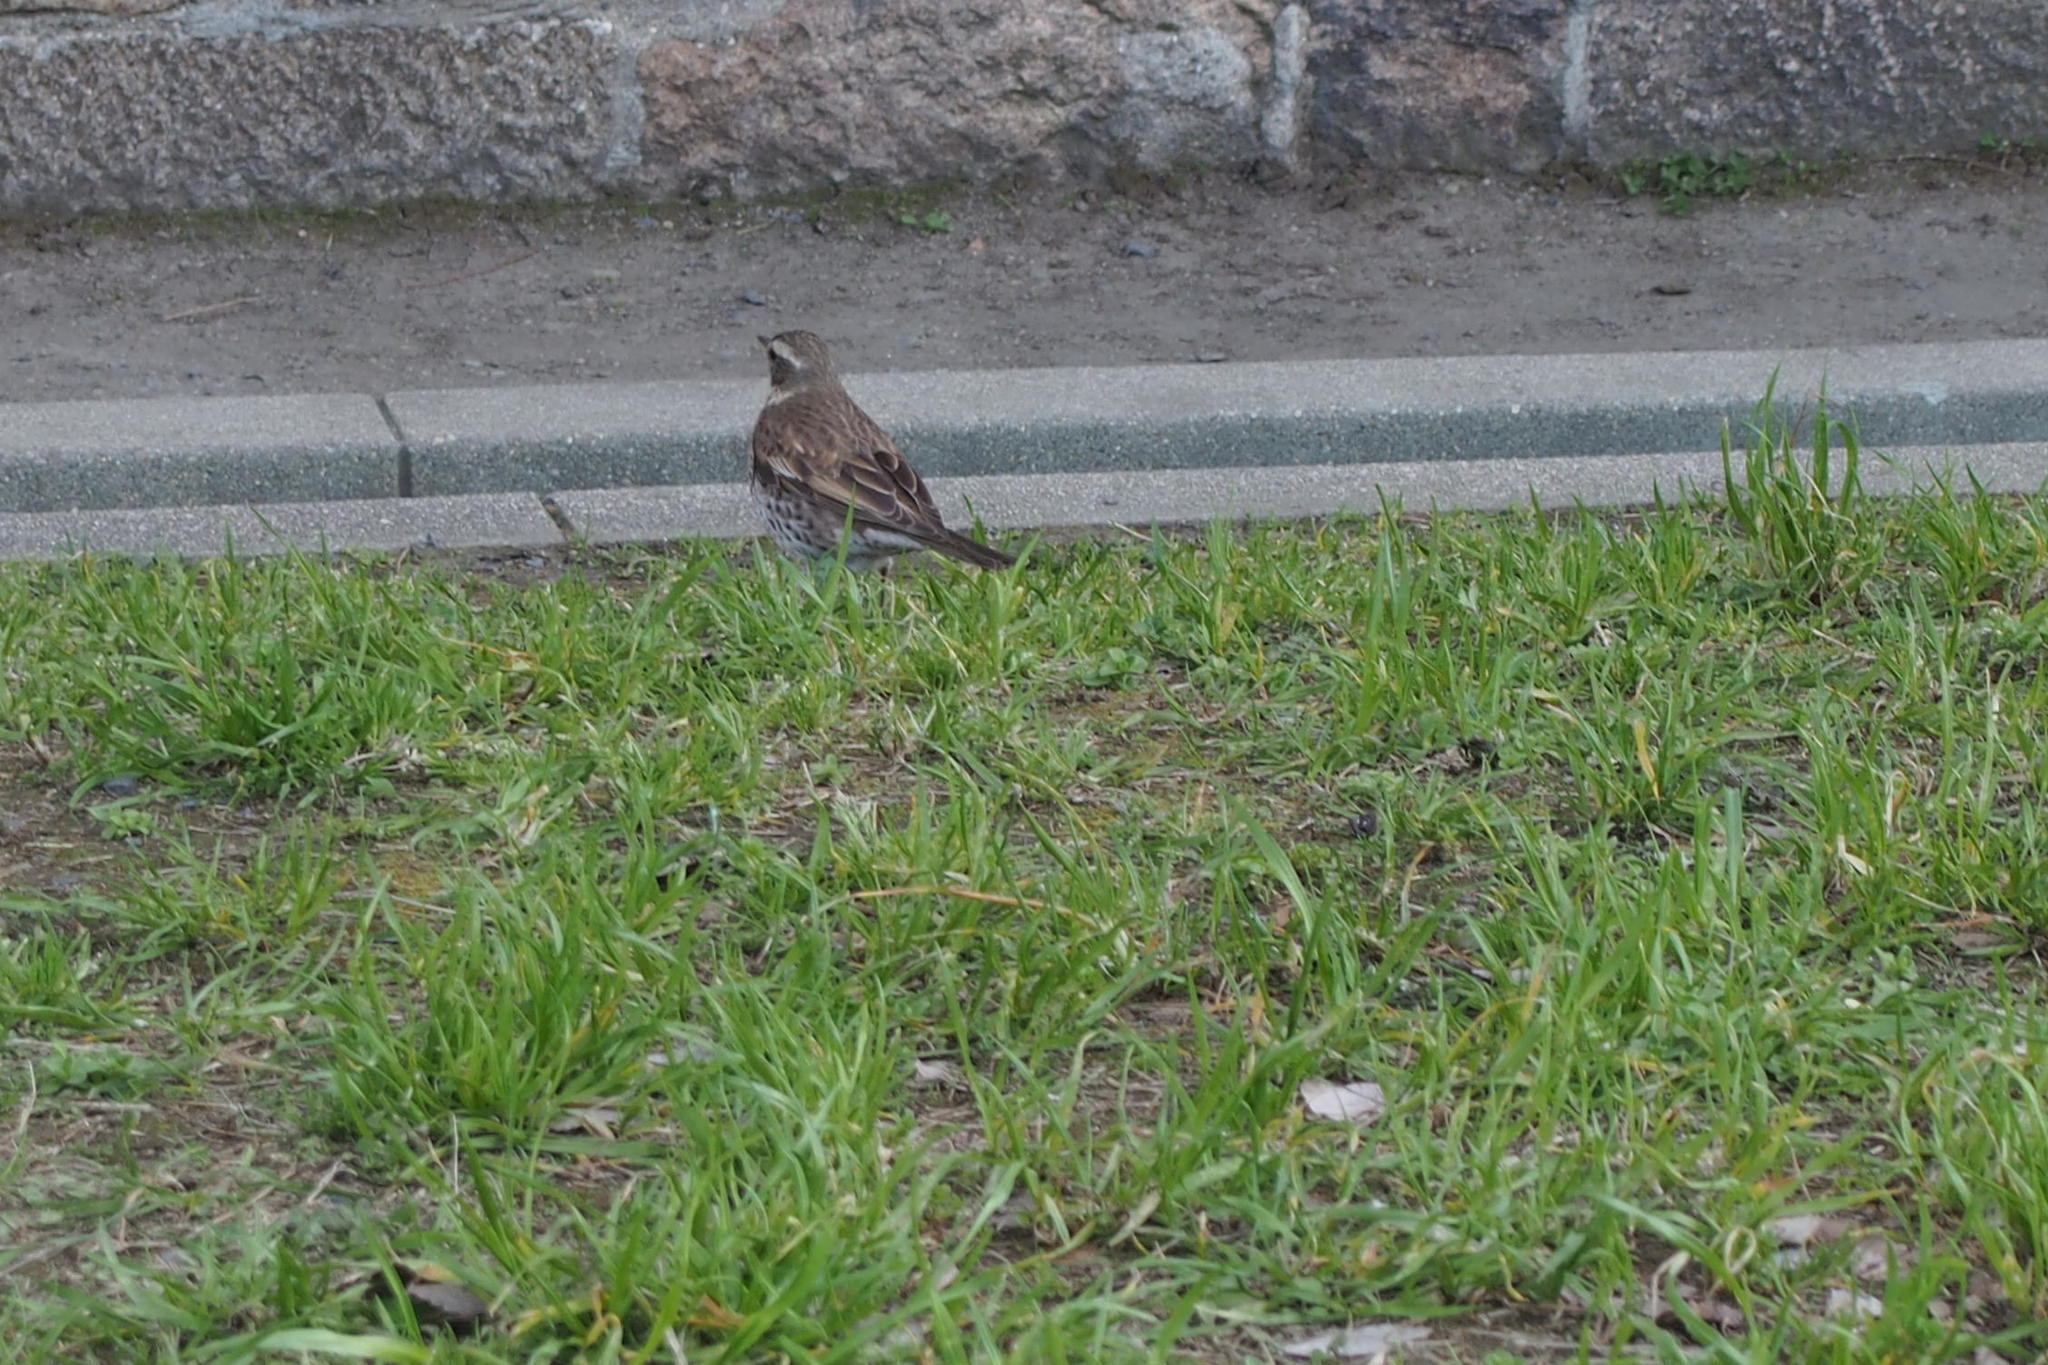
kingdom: Animalia
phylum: Chordata
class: Aves
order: Passeriformes
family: Turdidae
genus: Turdus
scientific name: Turdus eunomus
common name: Dusky thrush
